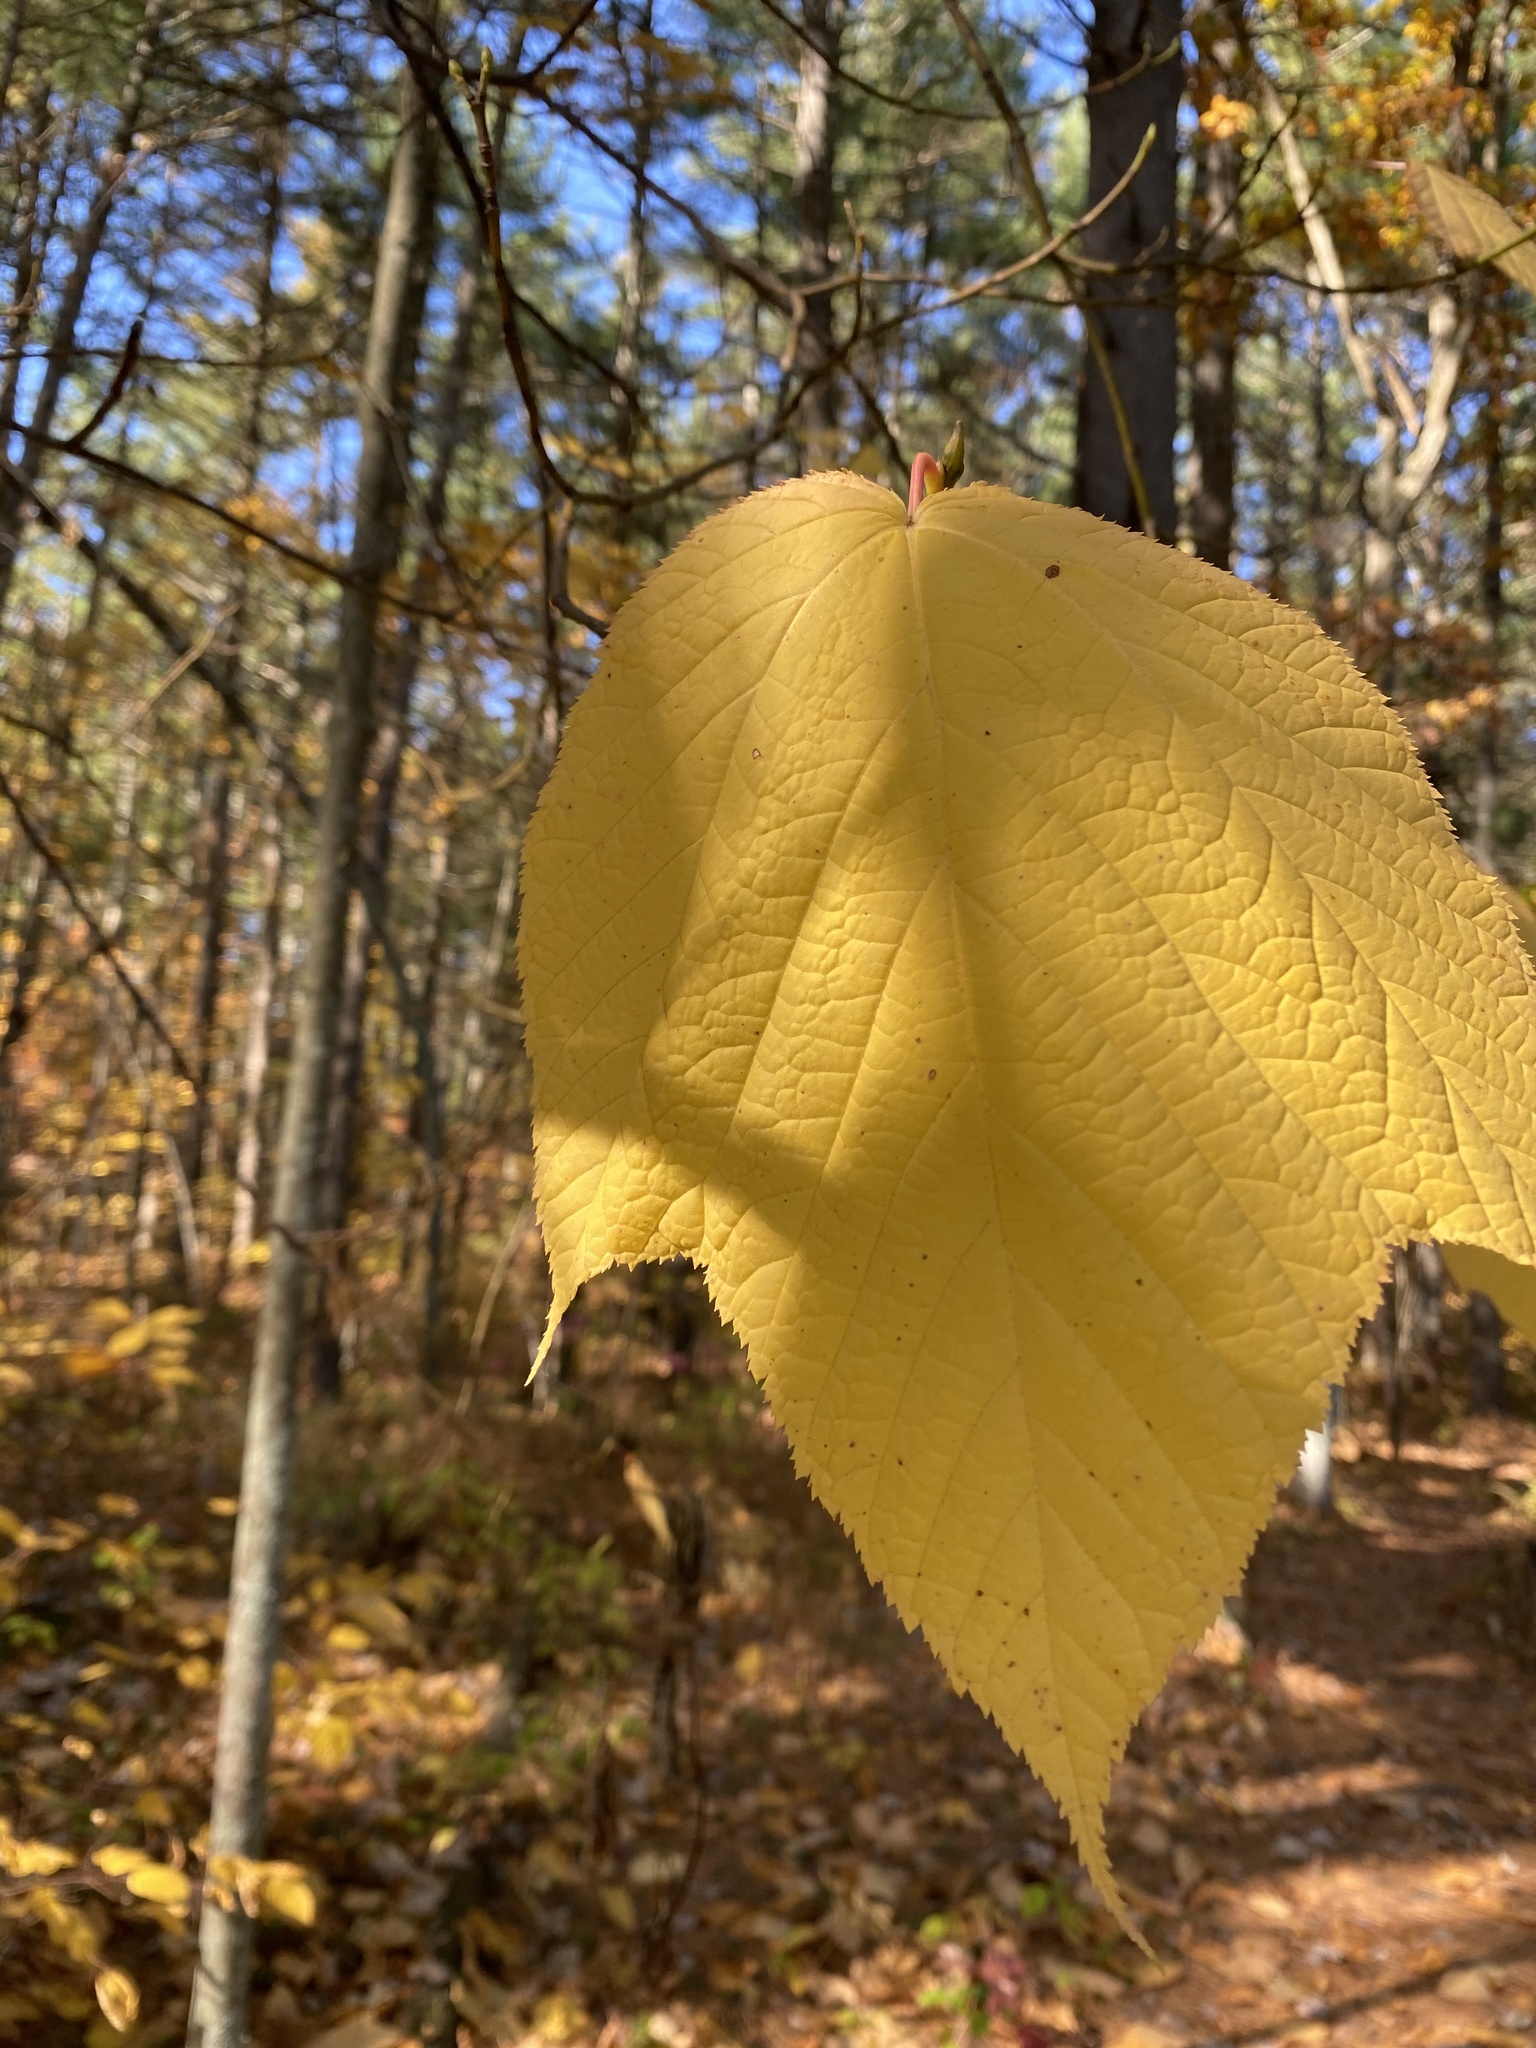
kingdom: Plantae
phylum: Tracheophyta
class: Magnoliopsida
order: Sapindales
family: Sapindaceae
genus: Acer
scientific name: Acer pensylvanicum
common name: Moosewood
